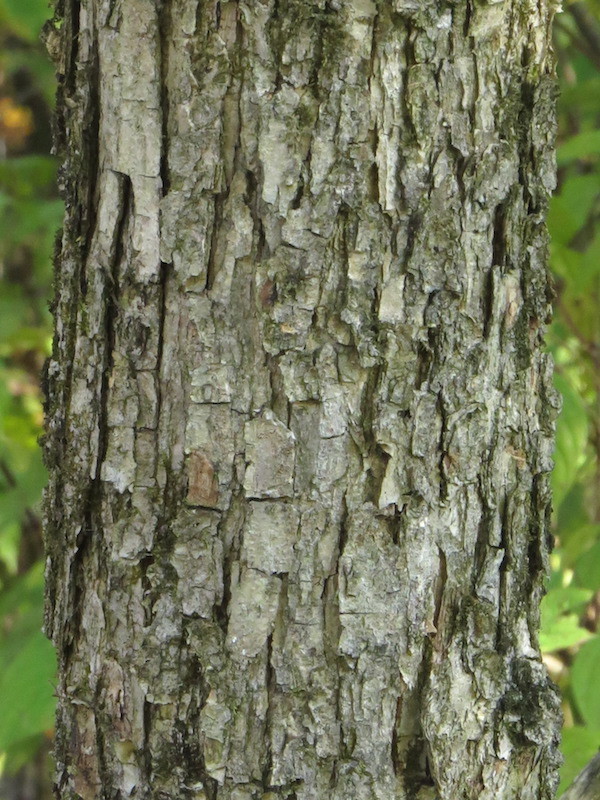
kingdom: Plantae
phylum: Tracheophyta
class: Magnoliopsida
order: Fagales
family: Fagaceae
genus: Quercus
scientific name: Quercus bicolor
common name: Swamp white oak
